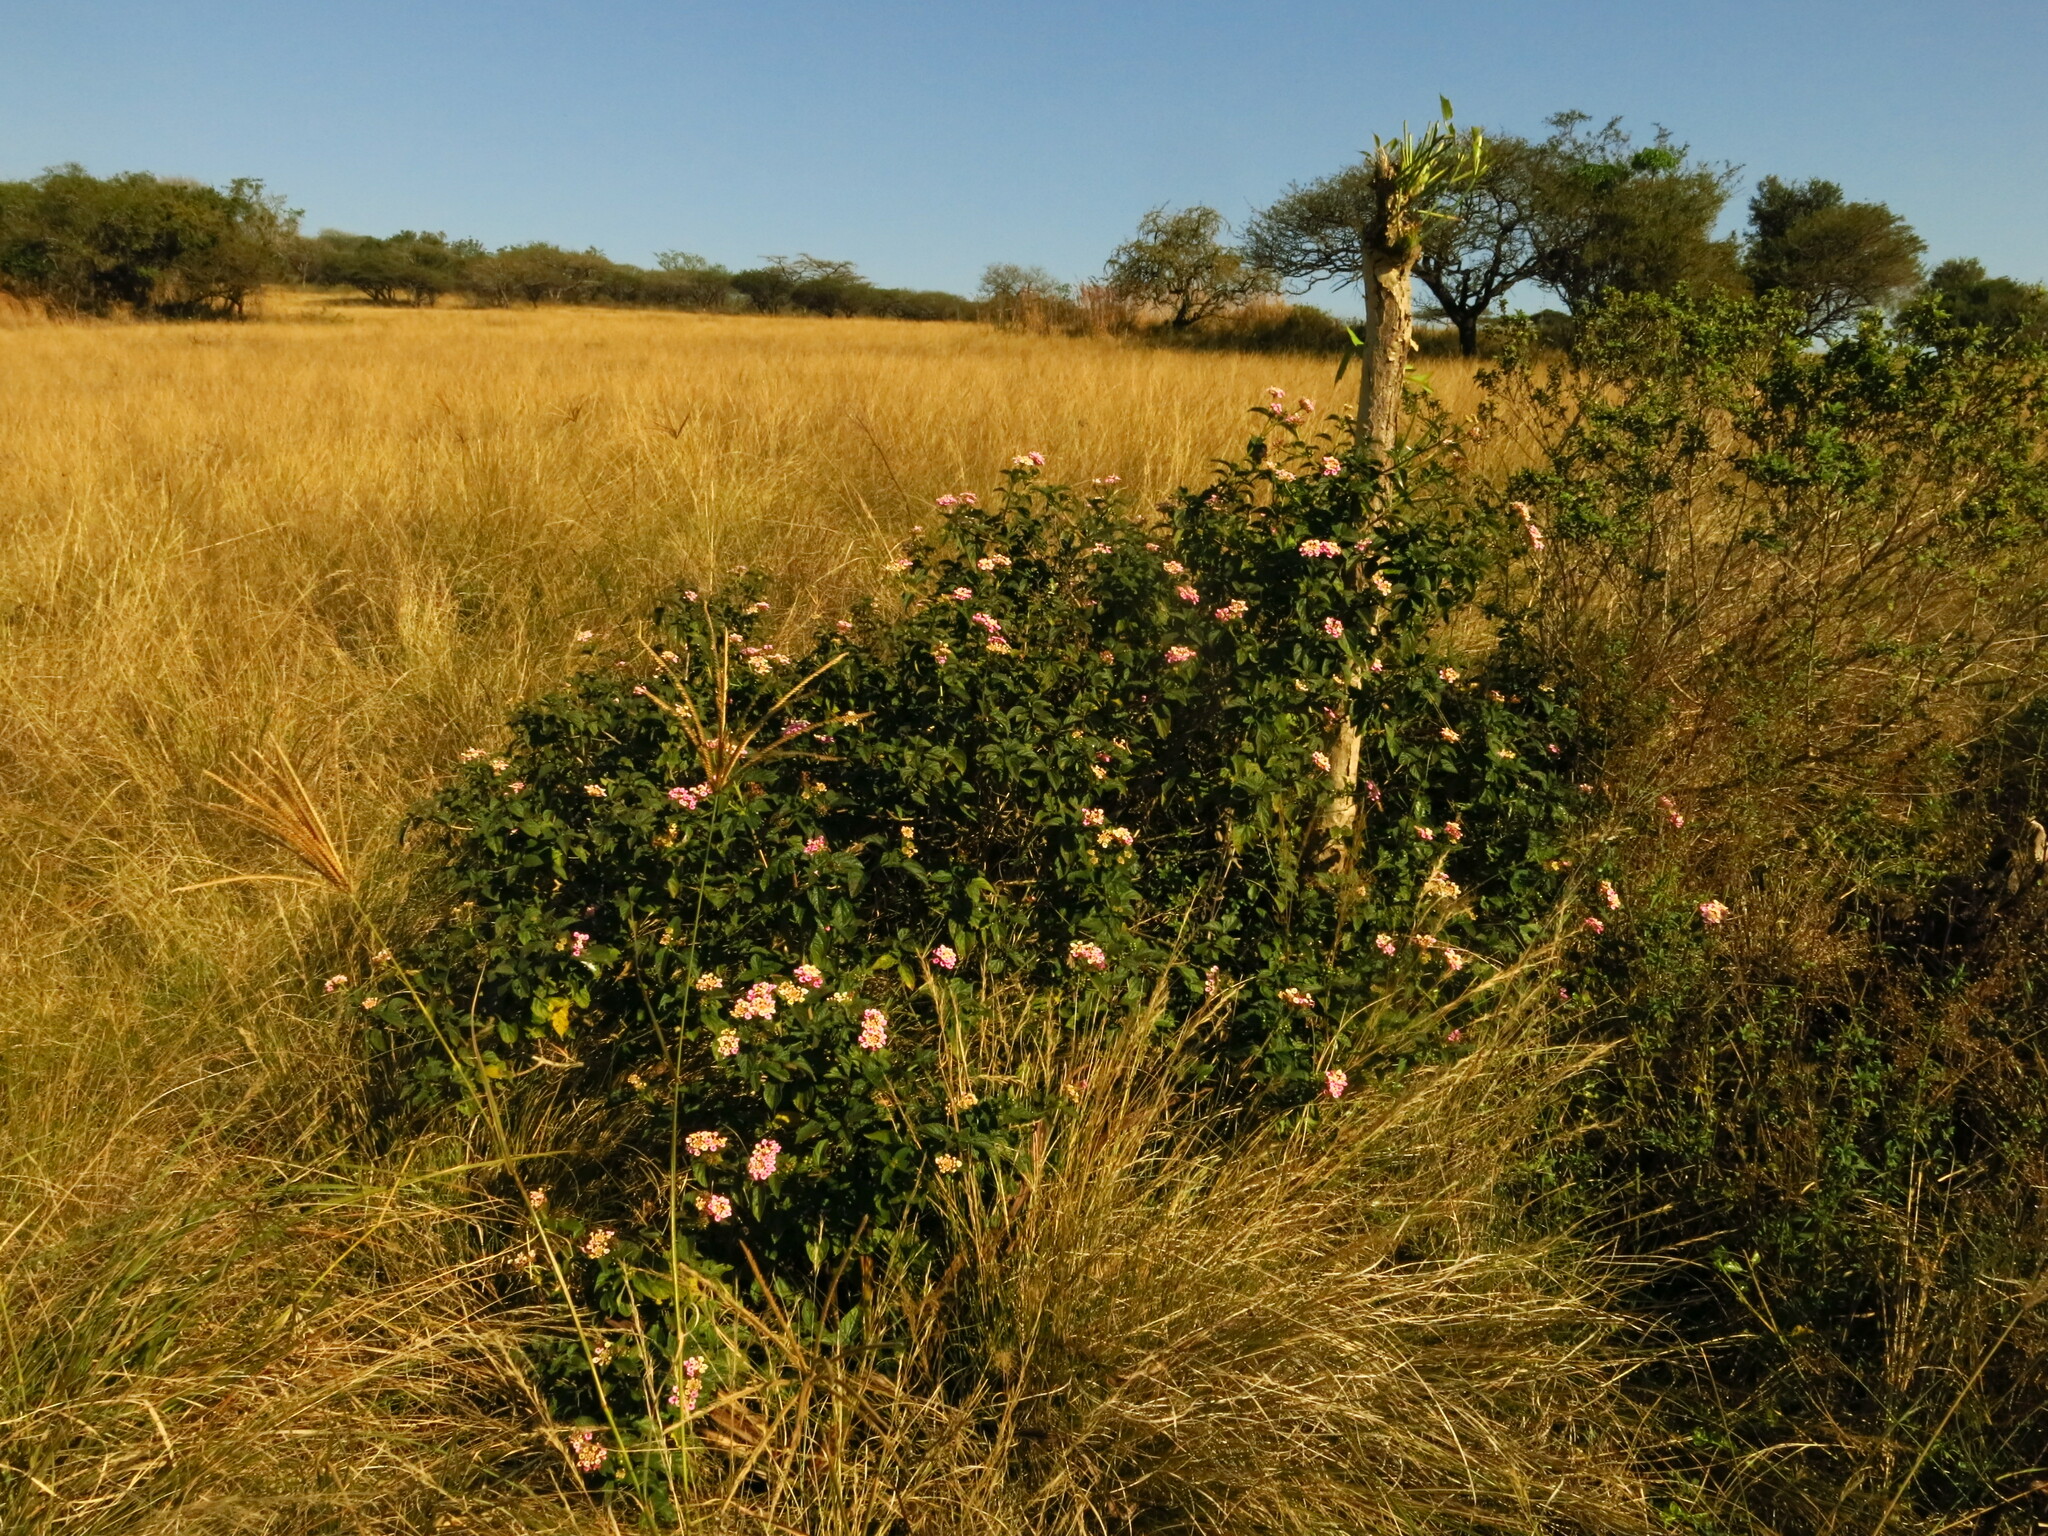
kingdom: Plantae
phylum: Tracheophyta
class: Magnoliopsida
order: Lamiales
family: Verbenaceae
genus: Lantana
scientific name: Lantana camara
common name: Lantana
